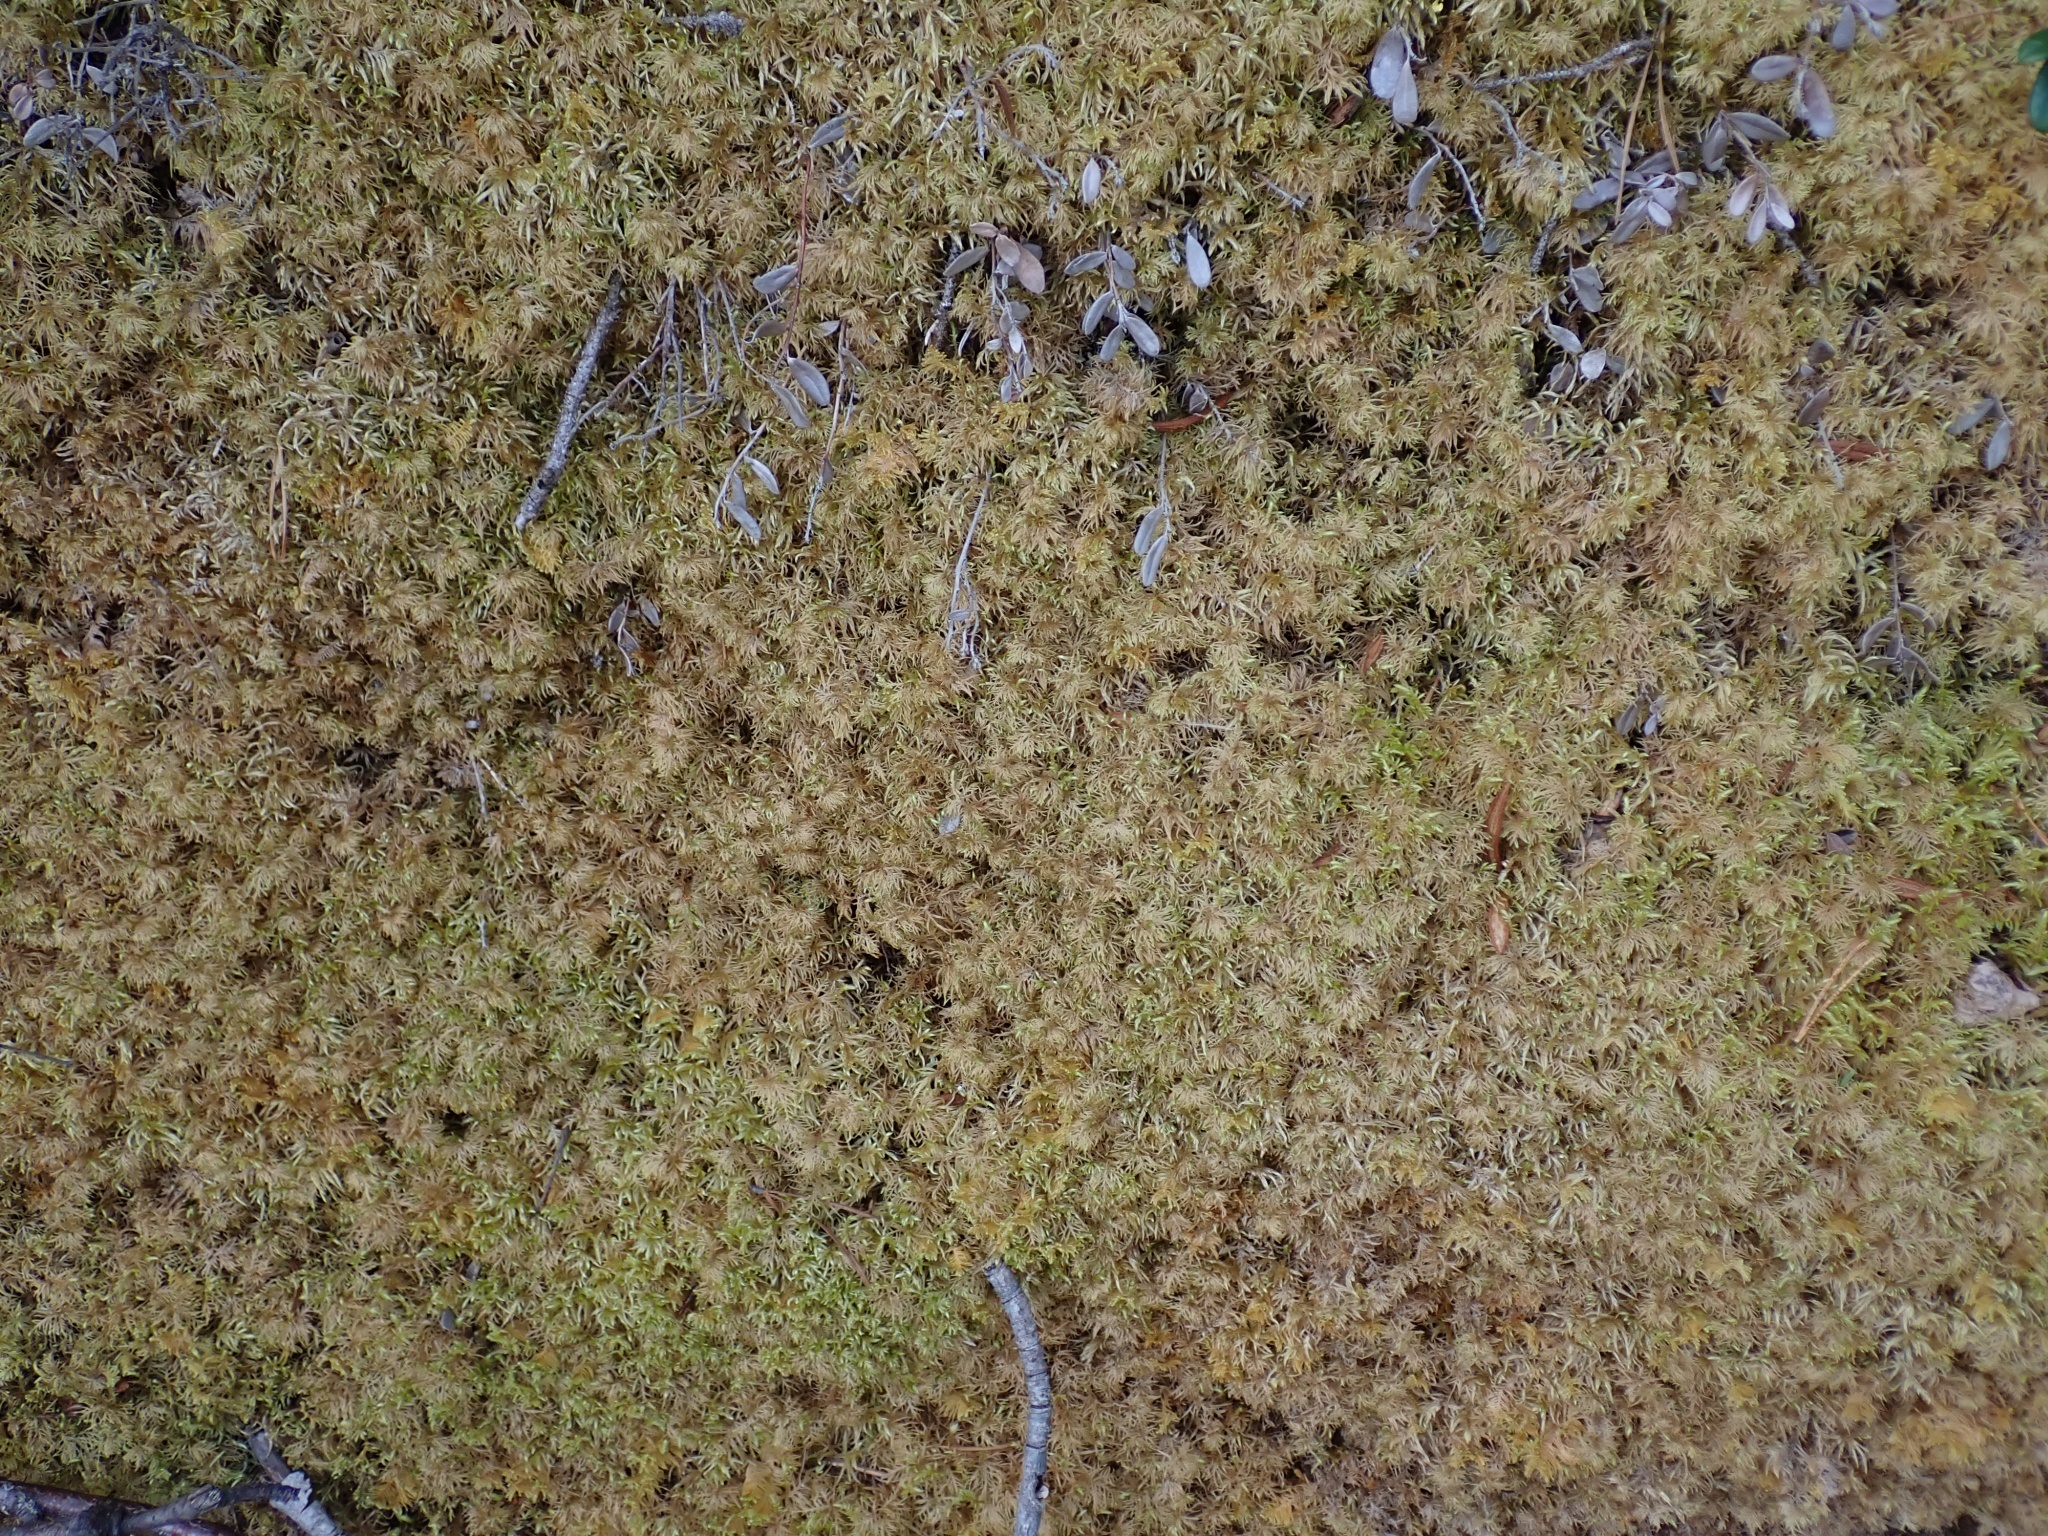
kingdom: Plantae
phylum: Bryophyta
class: Bryopsida
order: Hypnales
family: Hylocomiaceae
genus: Pleurozium
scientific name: Pleurozium schreberi
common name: Red-stemmed feather moss
